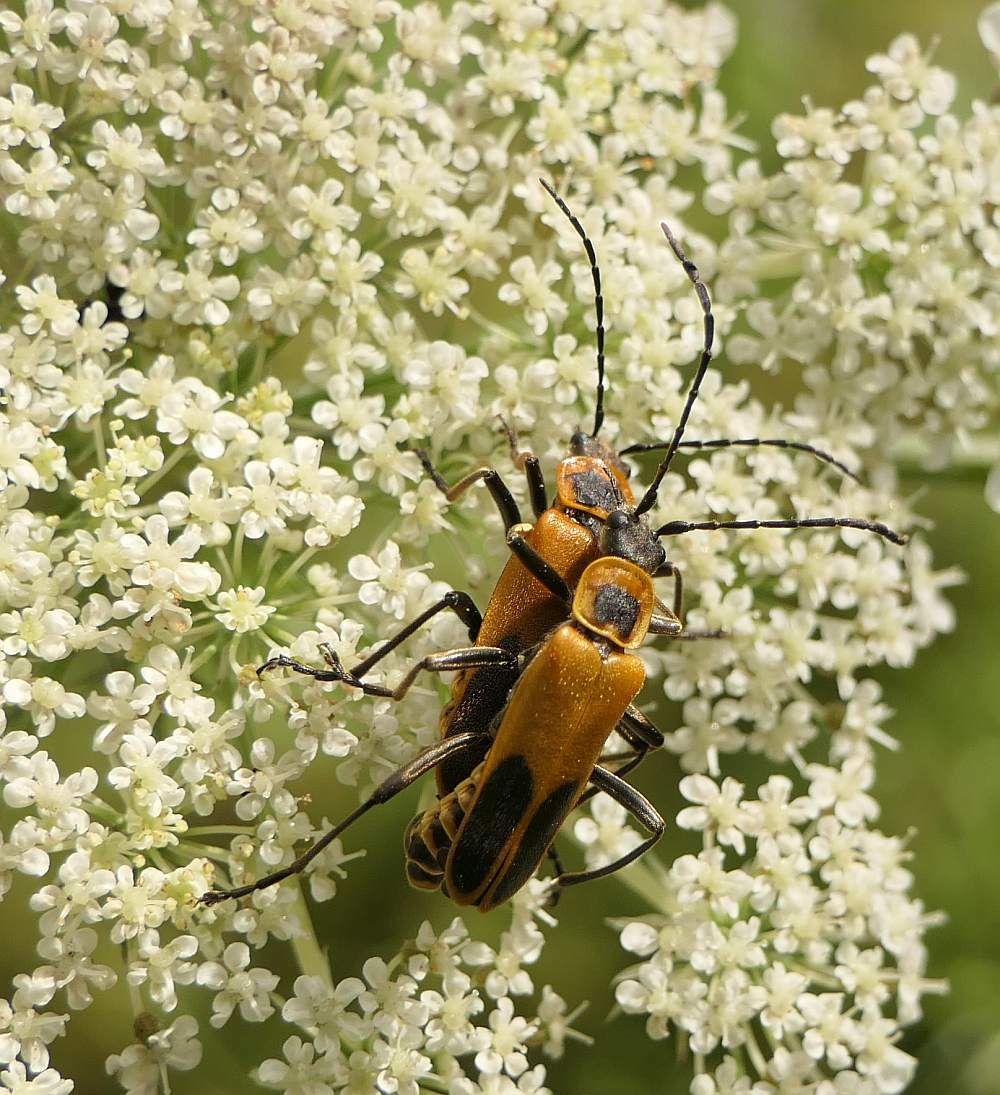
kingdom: Animalia
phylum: Arthropoda
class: Insecta
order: Coleoptera
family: Cantharidae
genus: Chauliognathus
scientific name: Chauliognathus pensylvanicus
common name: Goldenrod soldier beetle
